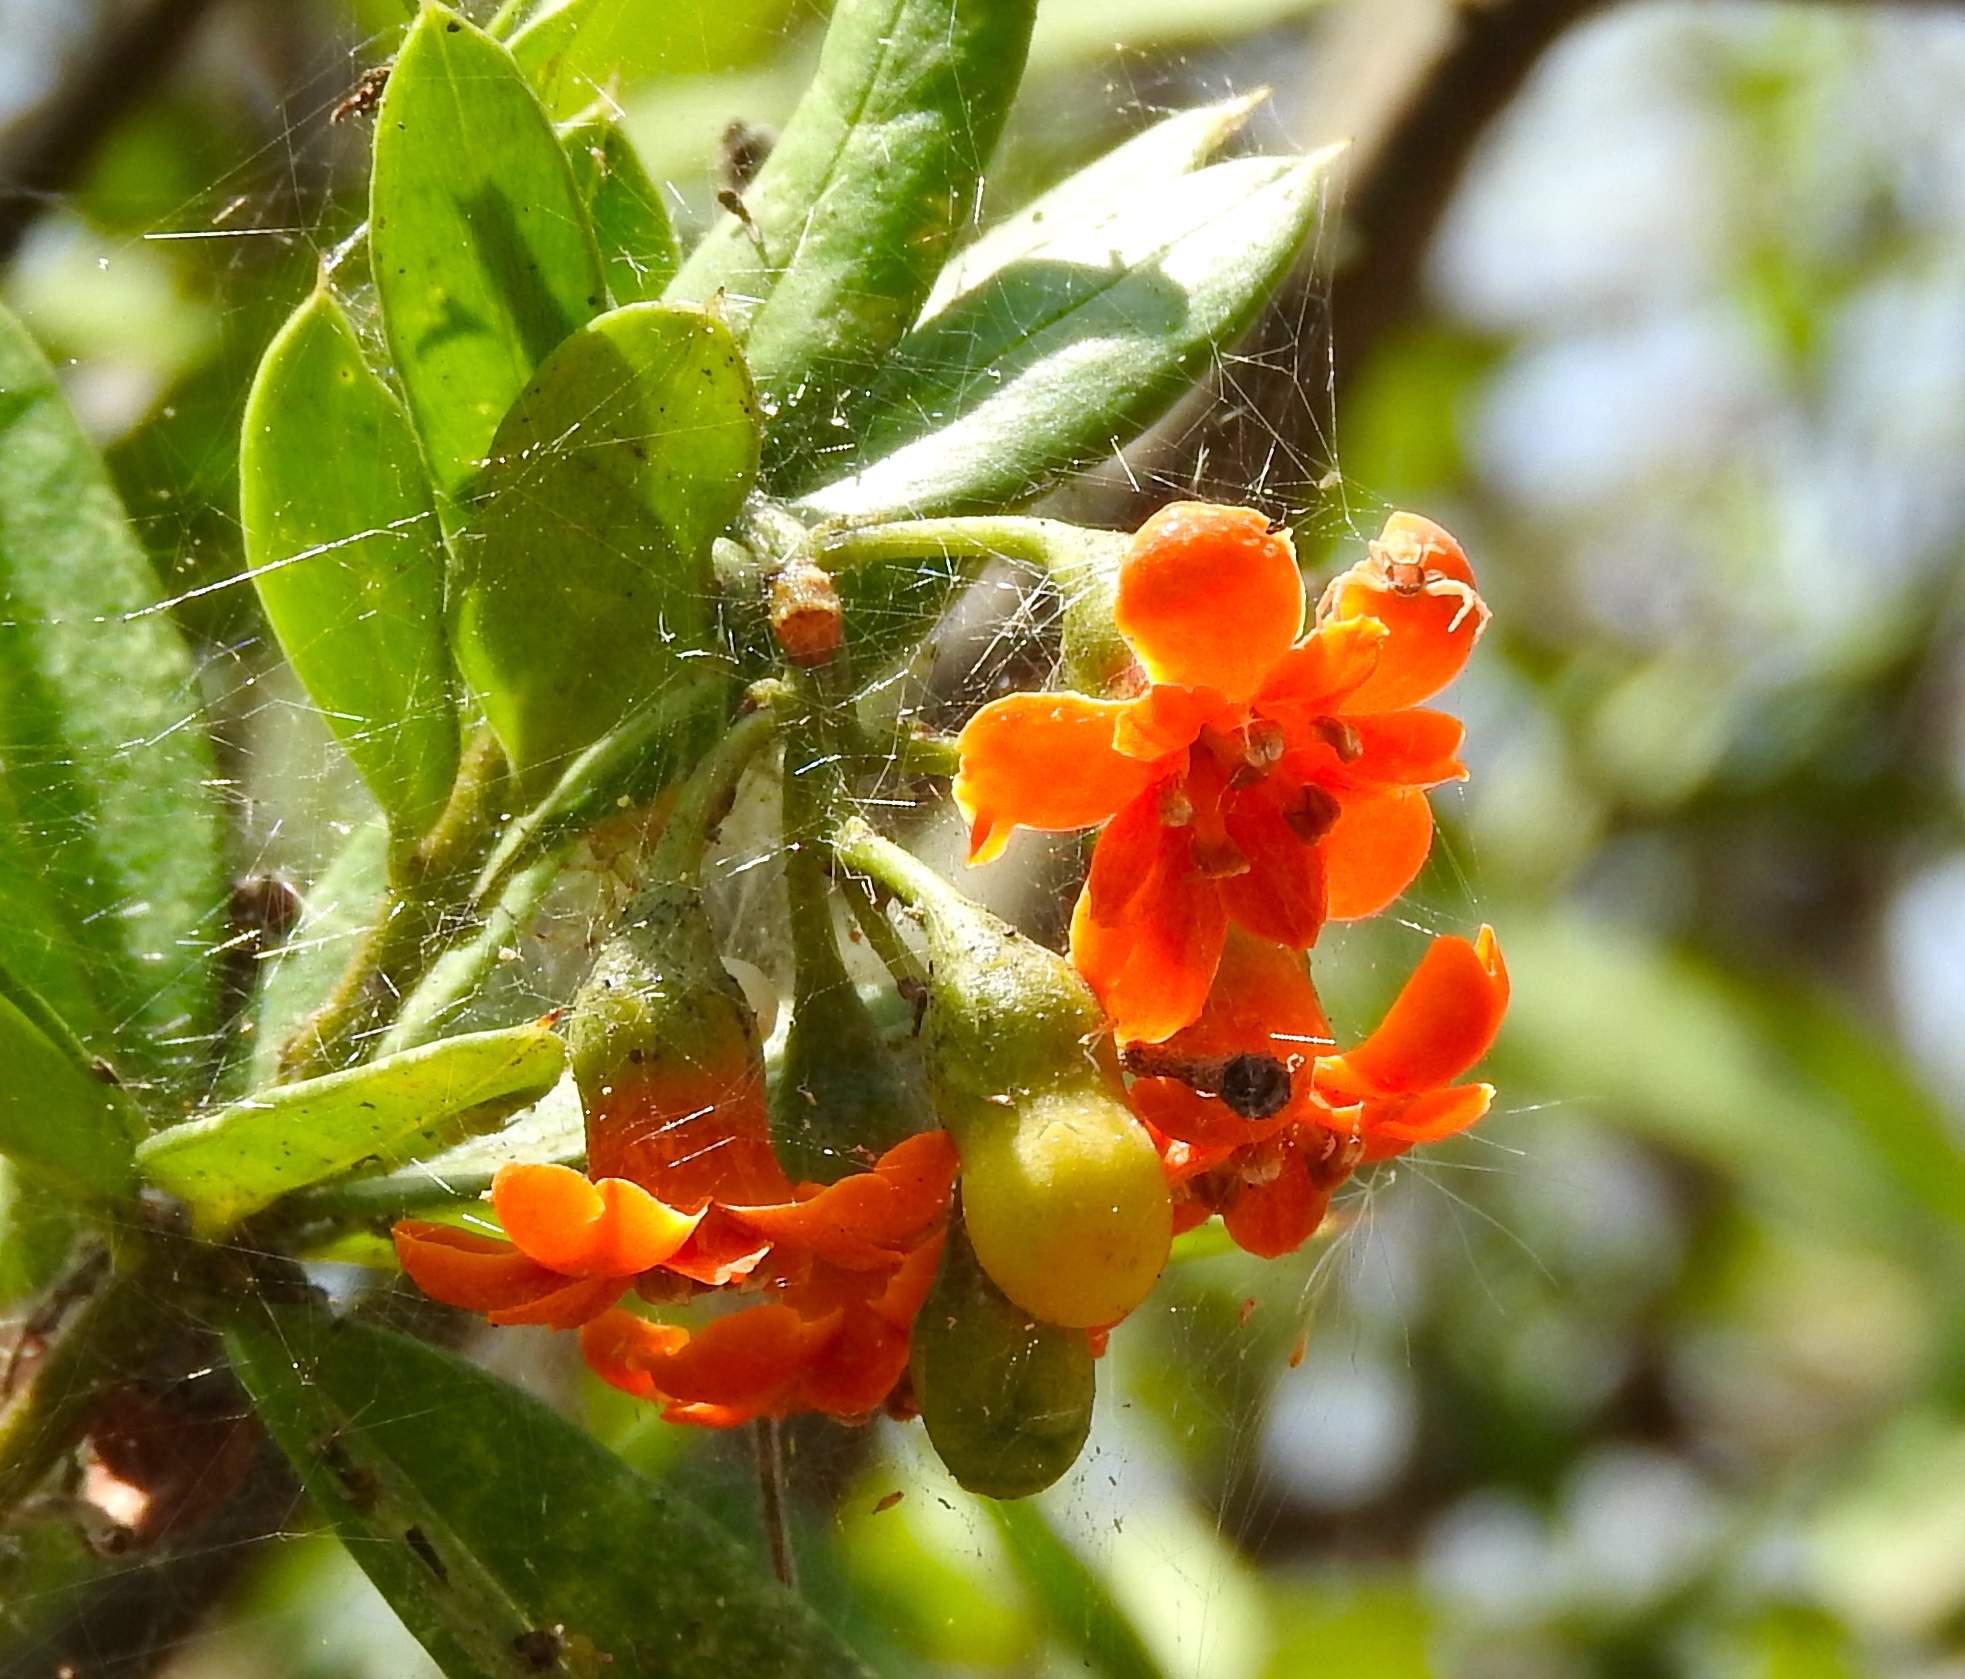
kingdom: Plantae
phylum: Tracheophyta
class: Magnoliopsida
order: Ericales
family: Primulaceae
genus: Bonellia
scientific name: Bonellia macrocarpa
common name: Primrose
